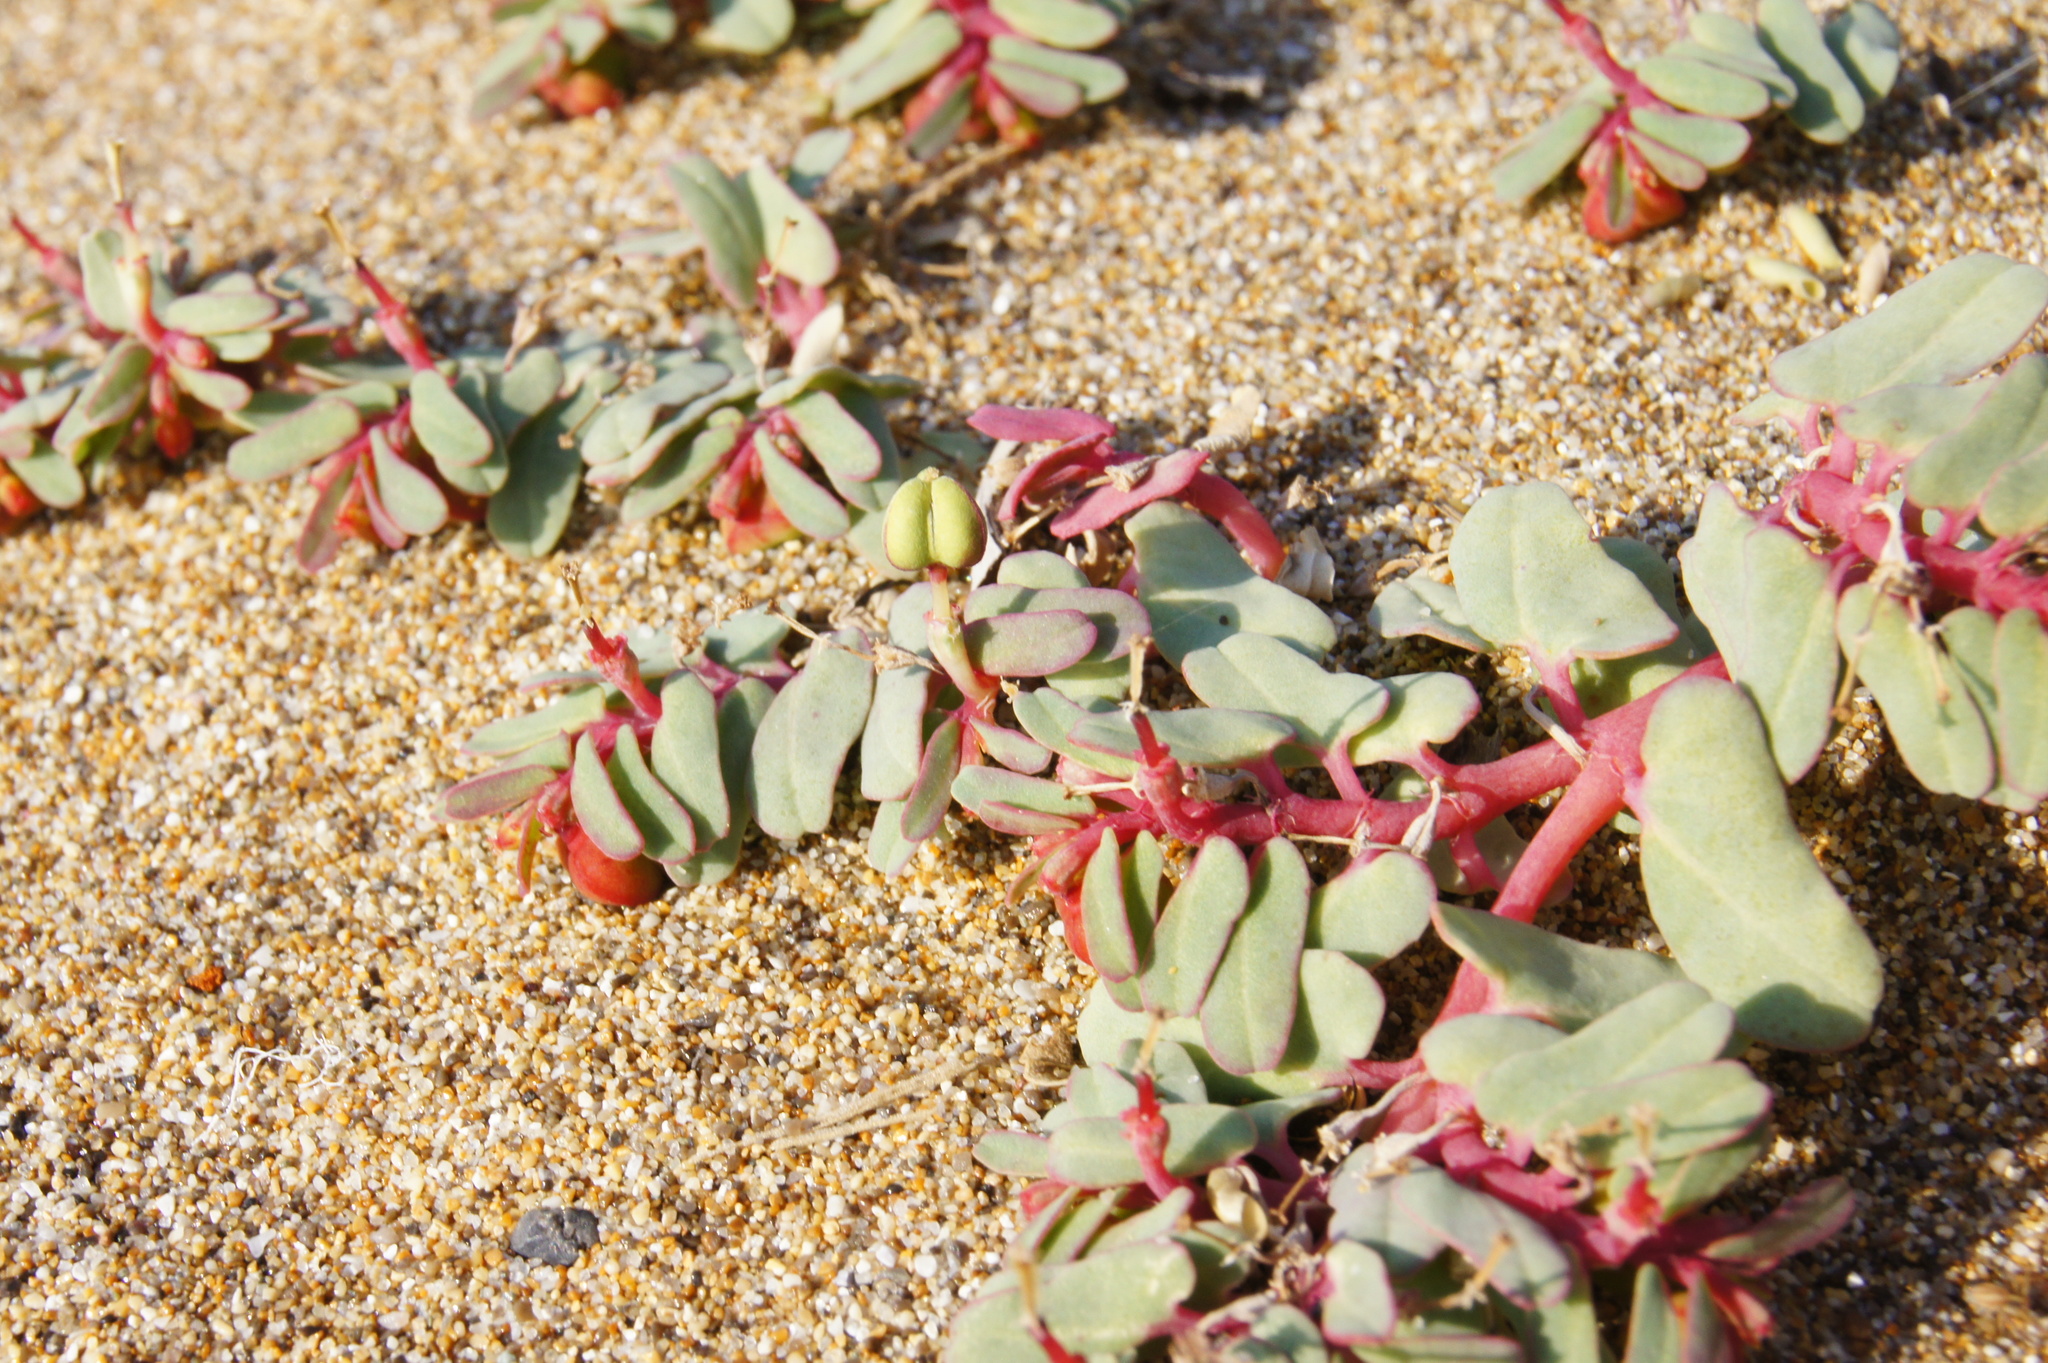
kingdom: Plantae
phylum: Tracheophyta
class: Magnoliopsida
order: Malpighiales
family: Euphorbiaceae
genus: Euphorbia
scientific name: Euphorbia peplis
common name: Purple spurge
